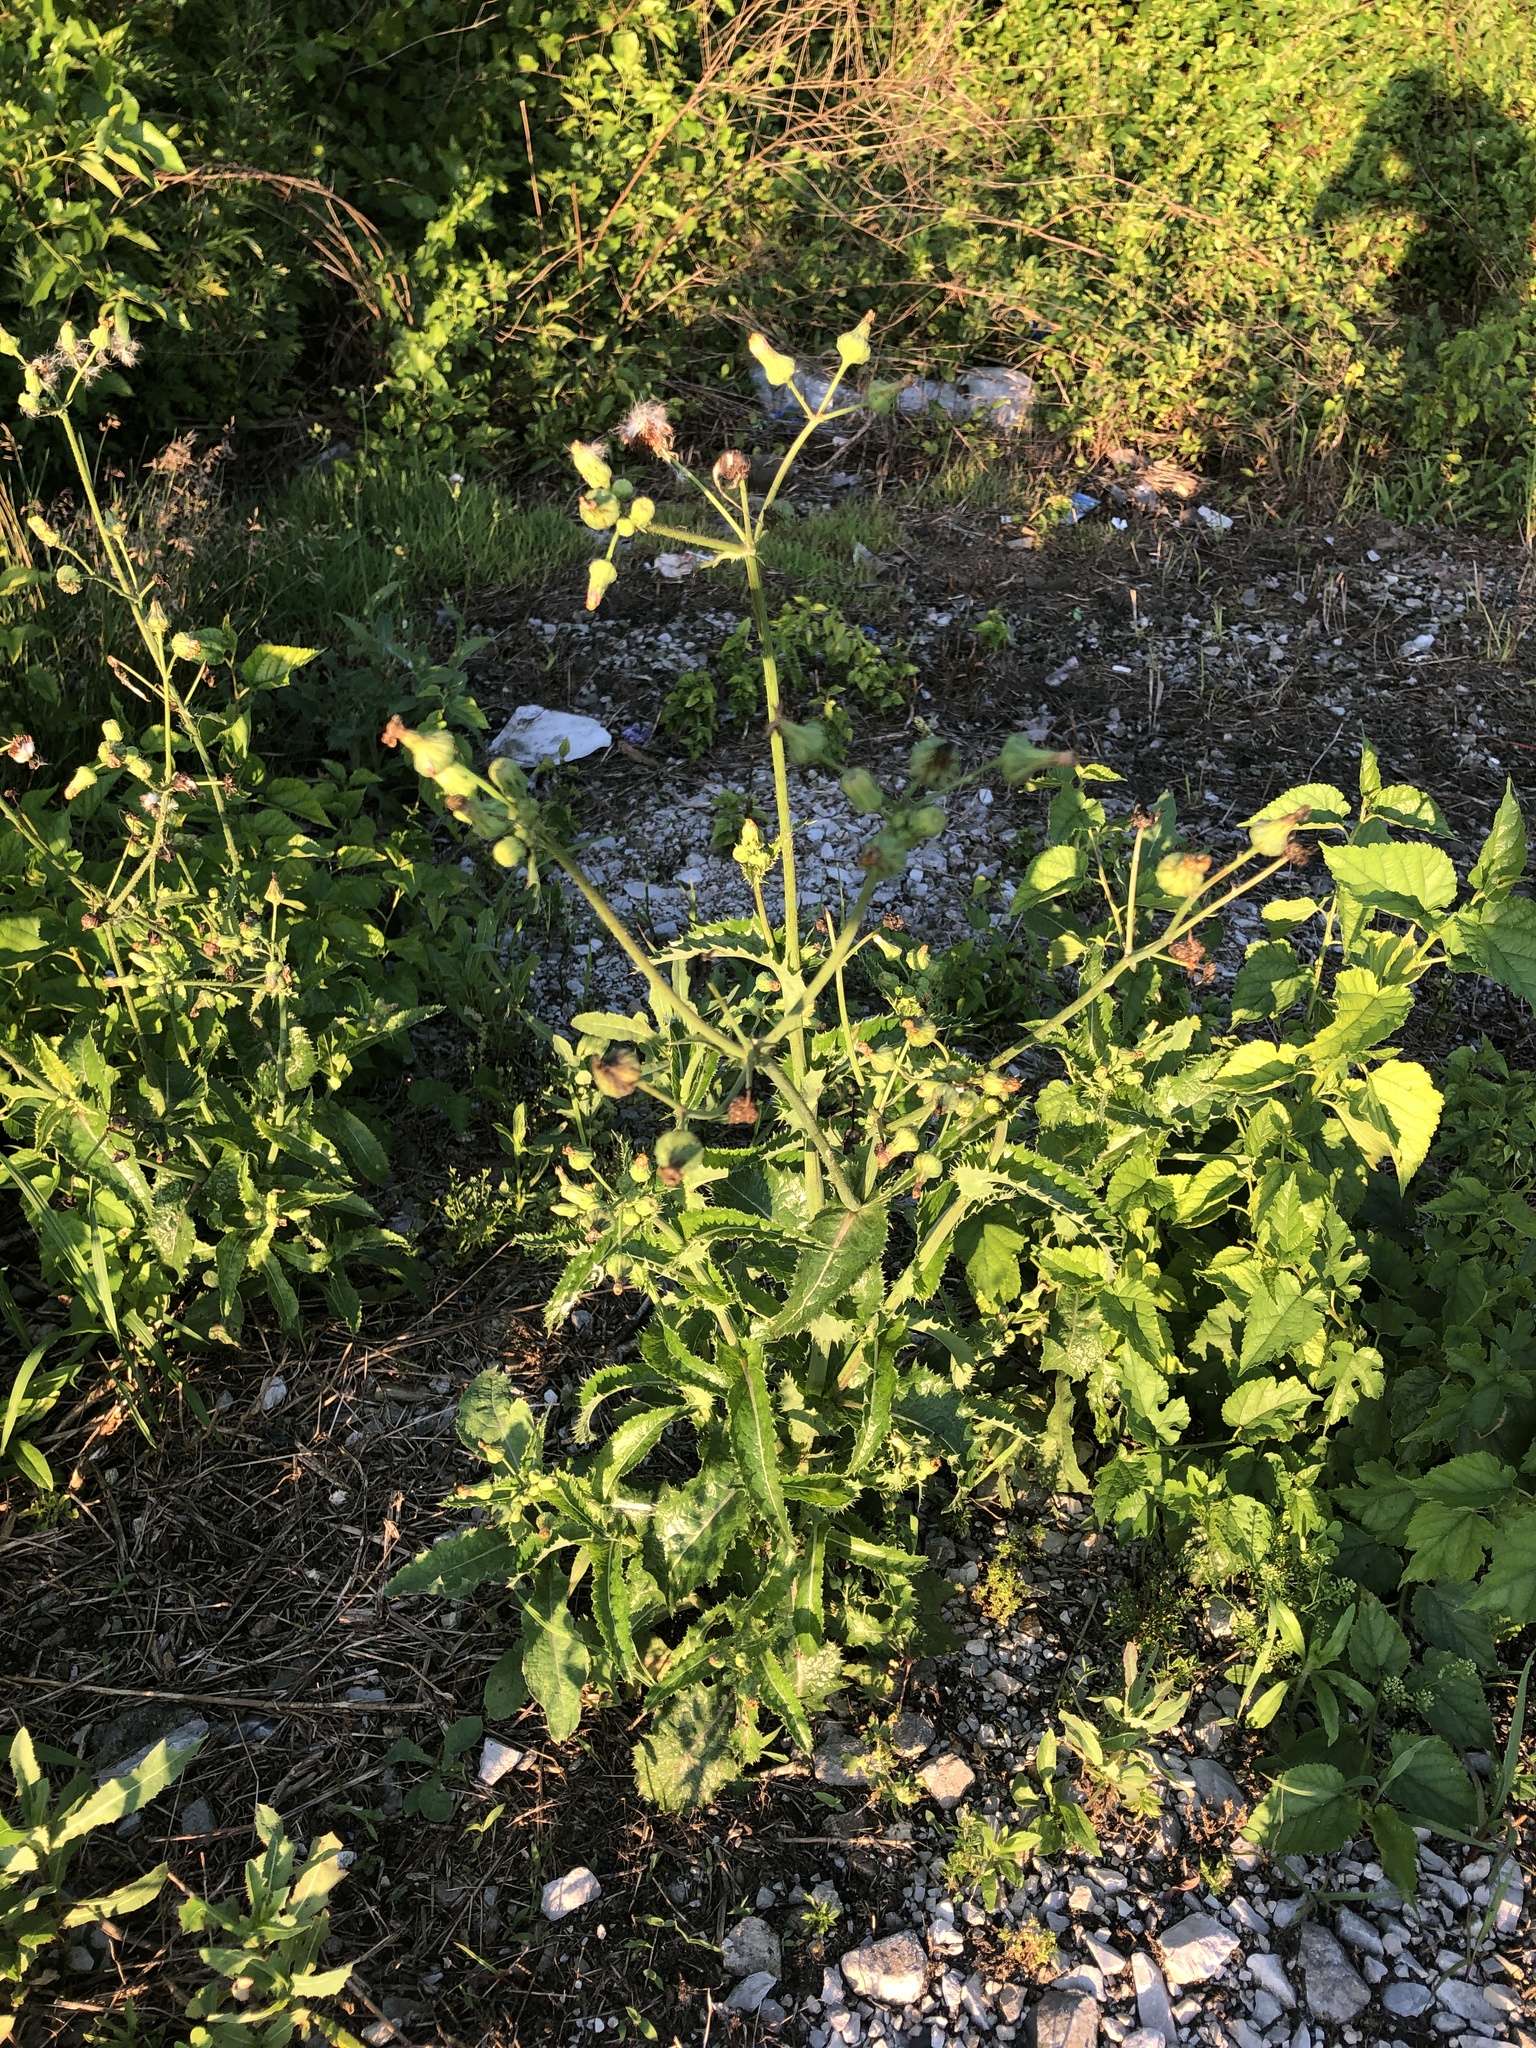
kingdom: Plantae
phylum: Tracheophyta
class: Magnoliopsida
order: Asterales
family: Asteraceae
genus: Sonchus
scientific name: Sonchus asper
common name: Prickly sow-thistle
